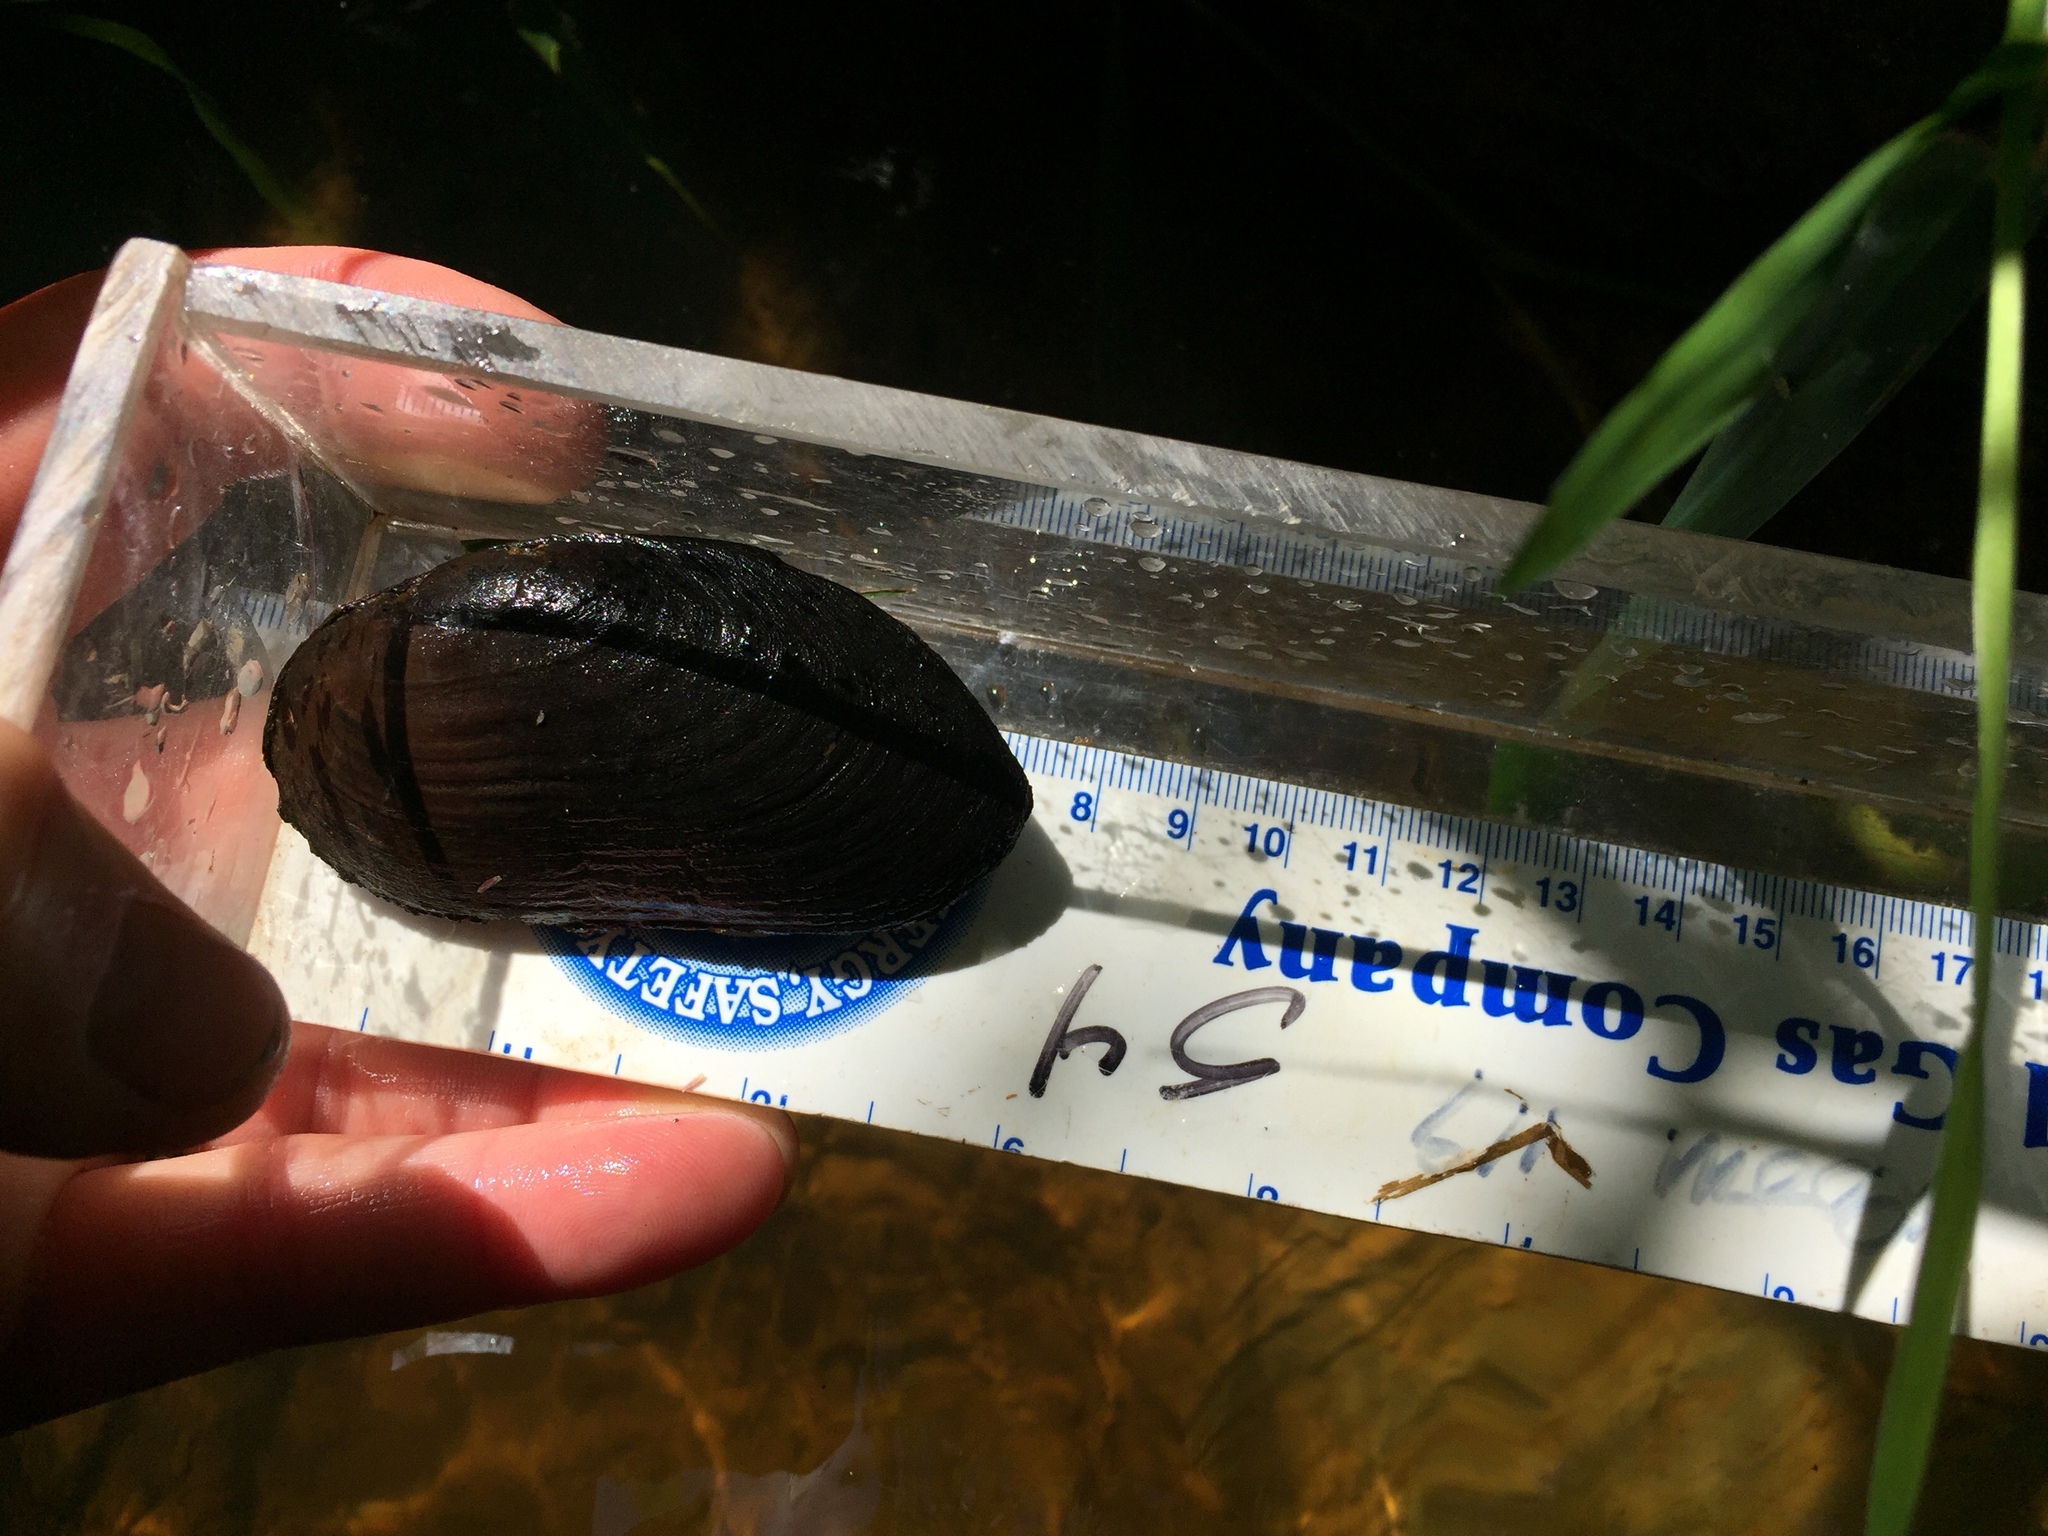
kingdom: Animalia
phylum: Mollusca
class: Bivalvia
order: Unionida
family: Margaritiferidae
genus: Margaritifera
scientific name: Margaritifera falcata
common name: Western pearlshell
